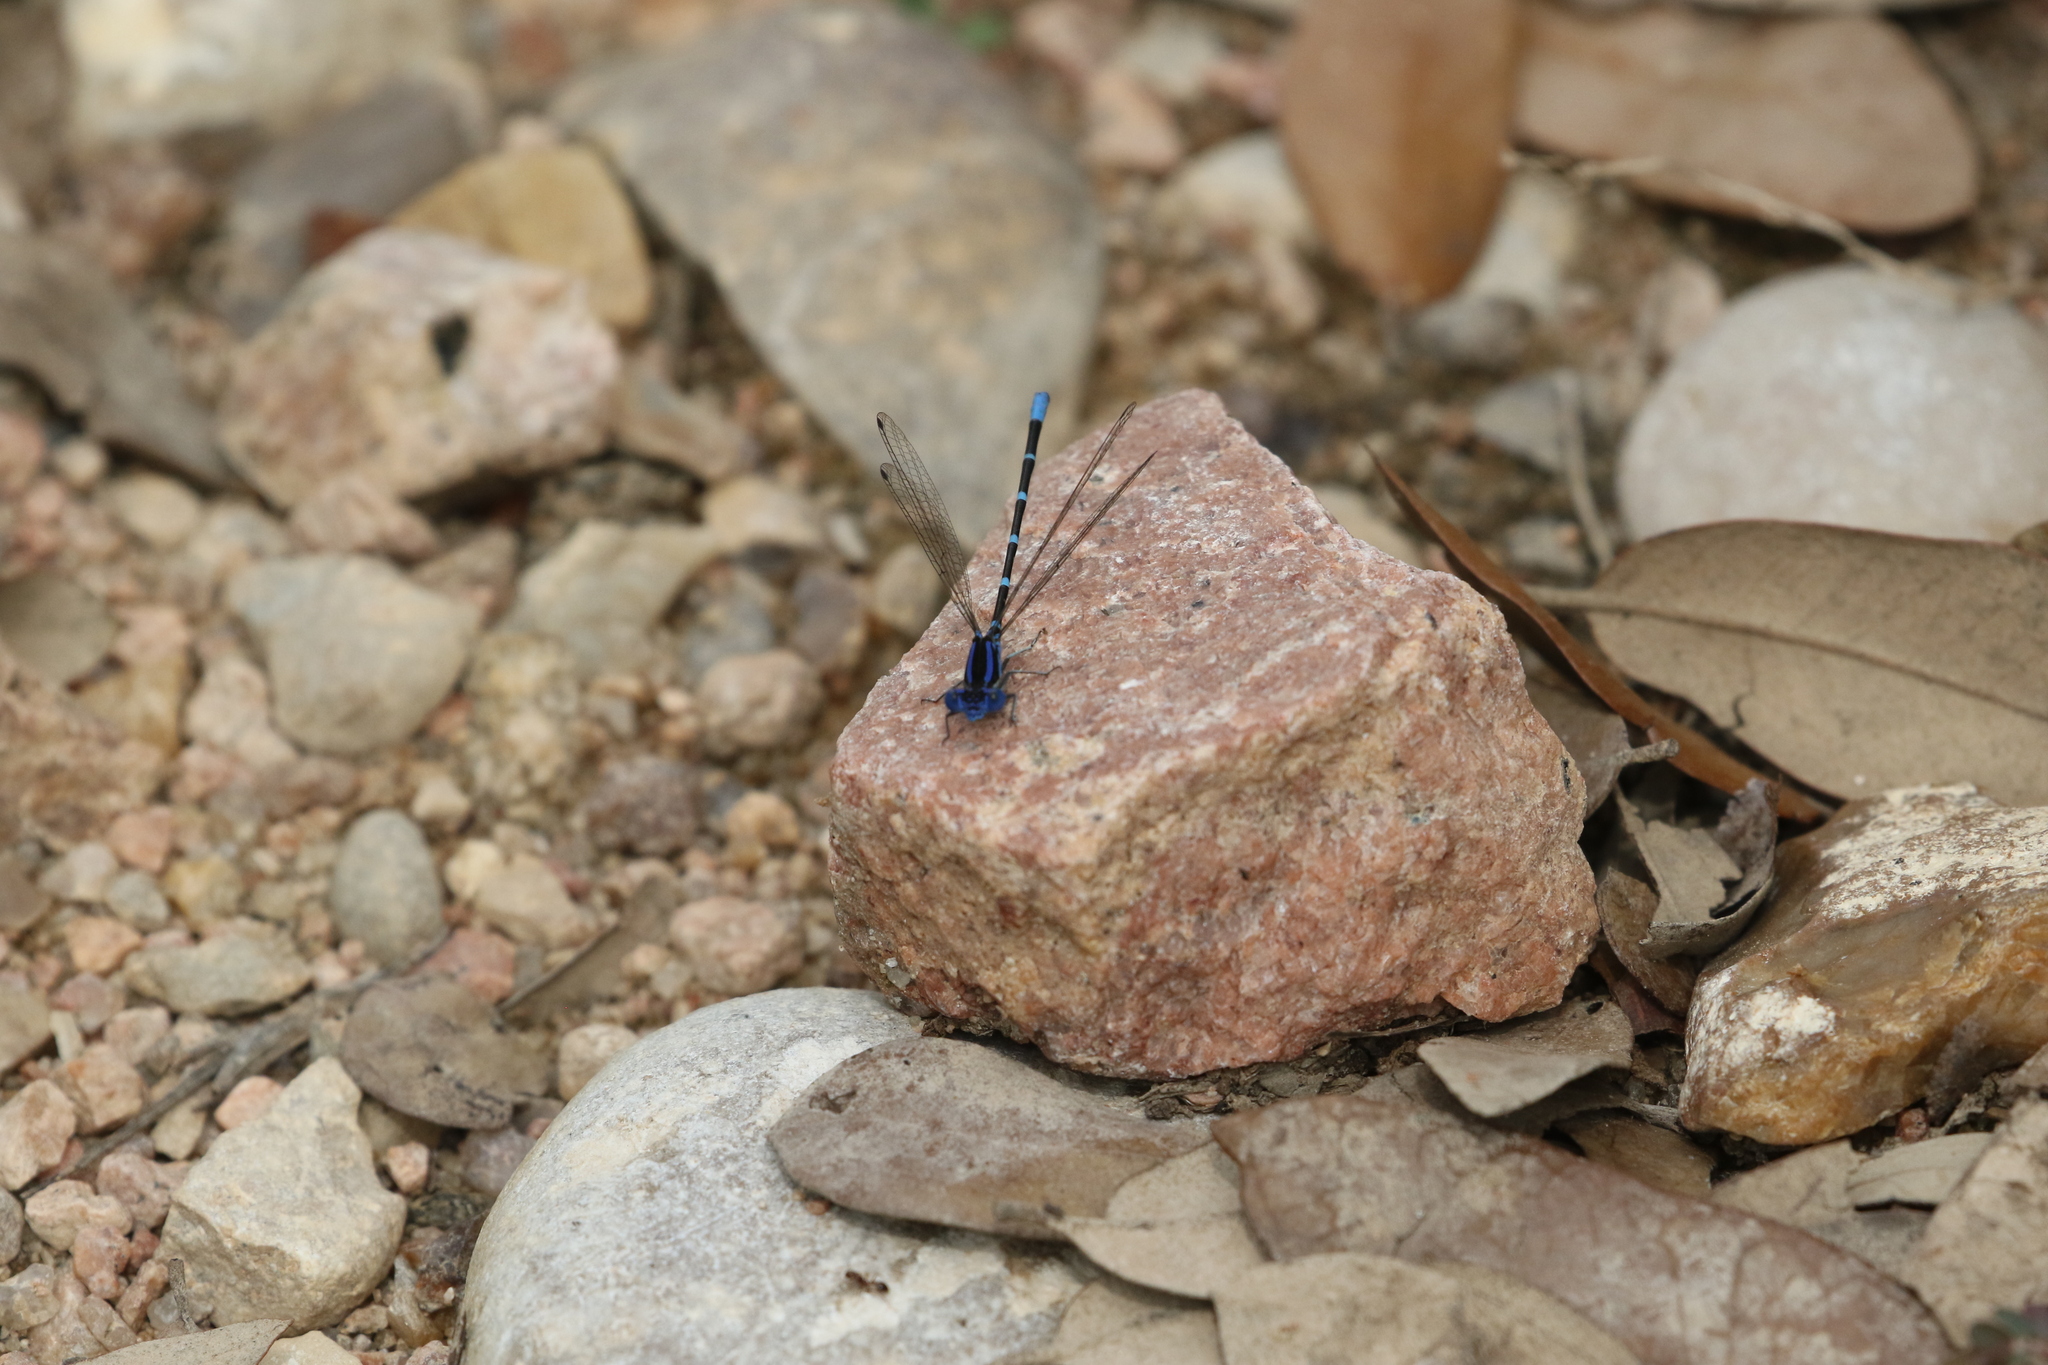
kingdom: Animalia
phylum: Arthropoda
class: Insecta
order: Odonata
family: Coenagrionidae
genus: Argia
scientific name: Argia sedula
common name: Blue-ringed dancer
